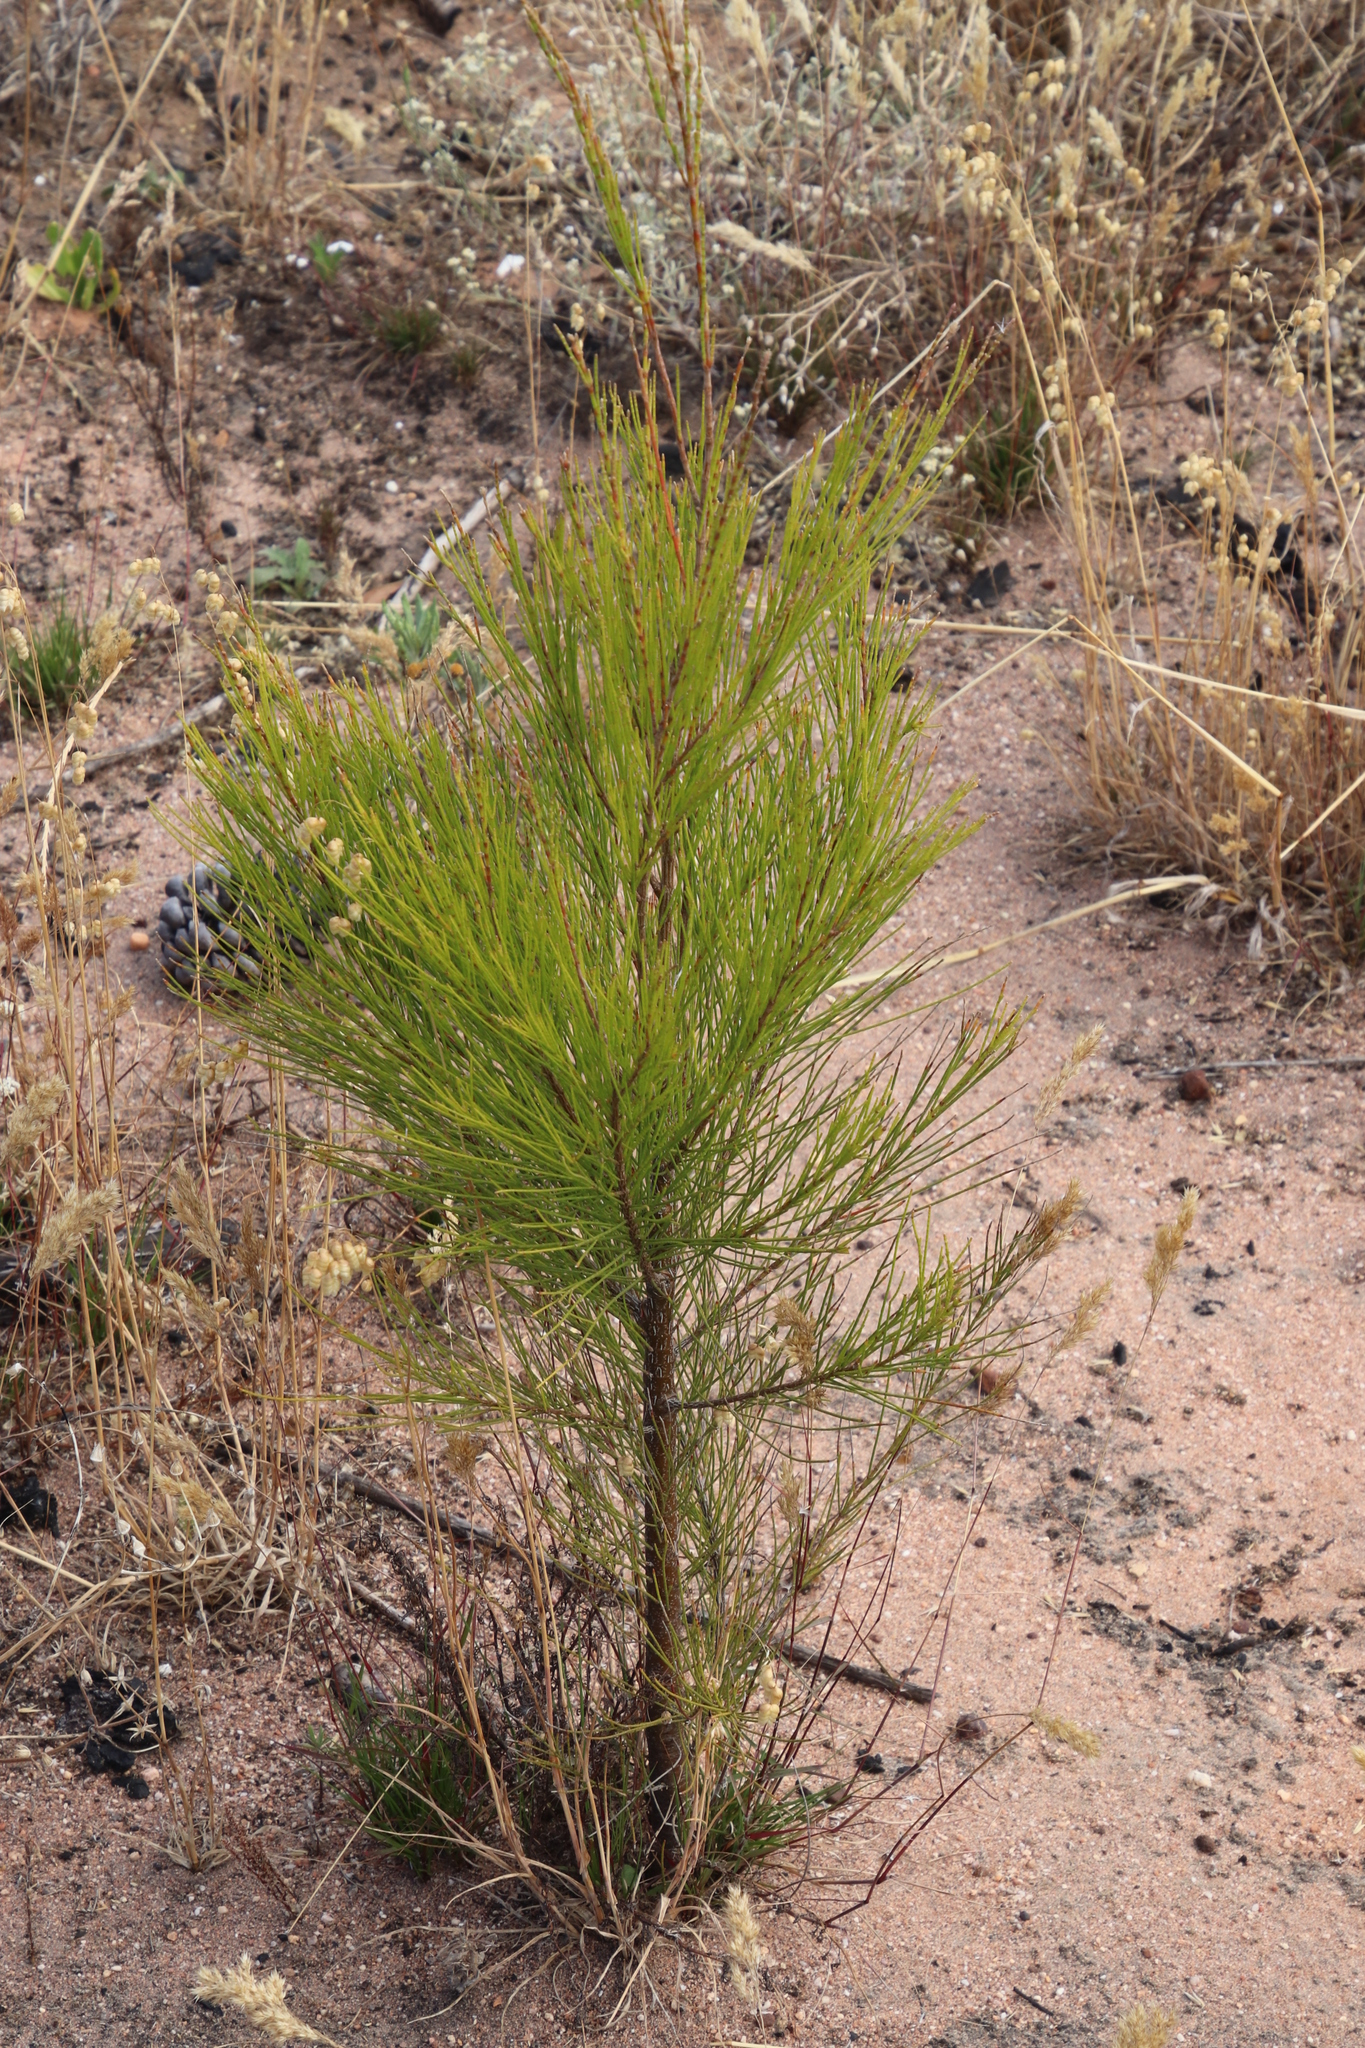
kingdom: Plantae
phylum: Tracheophyta
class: Magnoliopsida
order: Fagales
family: Casuarinaceae
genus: Casuarina
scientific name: Casuarina cunninghamiana
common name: River sheoak
